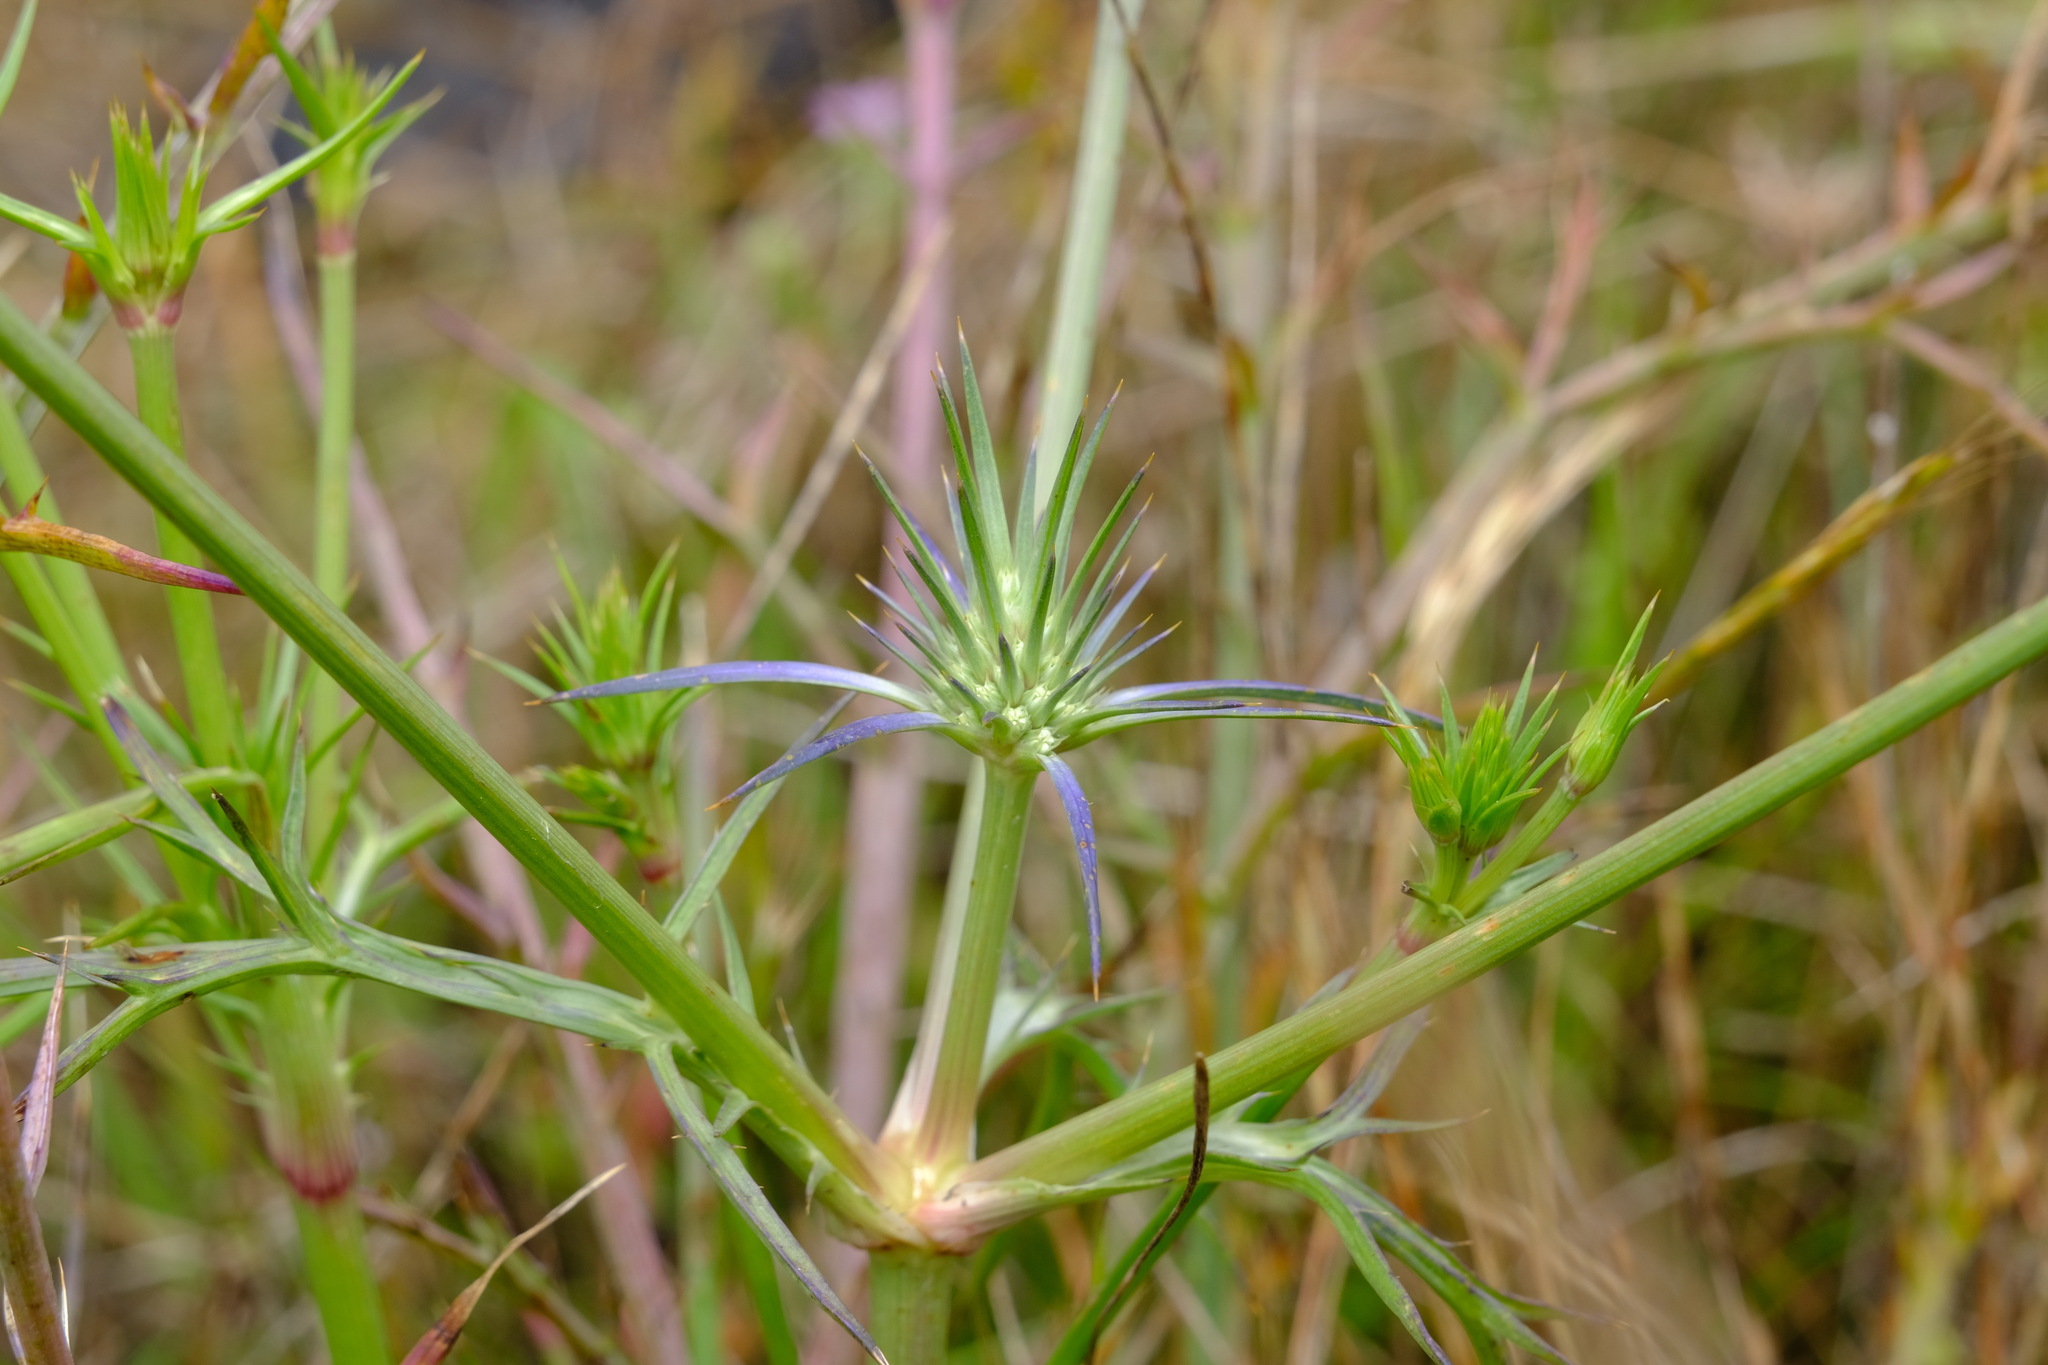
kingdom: Plantae
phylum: Tracheophyta
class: Magnoliopsida
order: Apiales
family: Apiaceae
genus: Eryngium
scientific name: Eryngium ovinum
